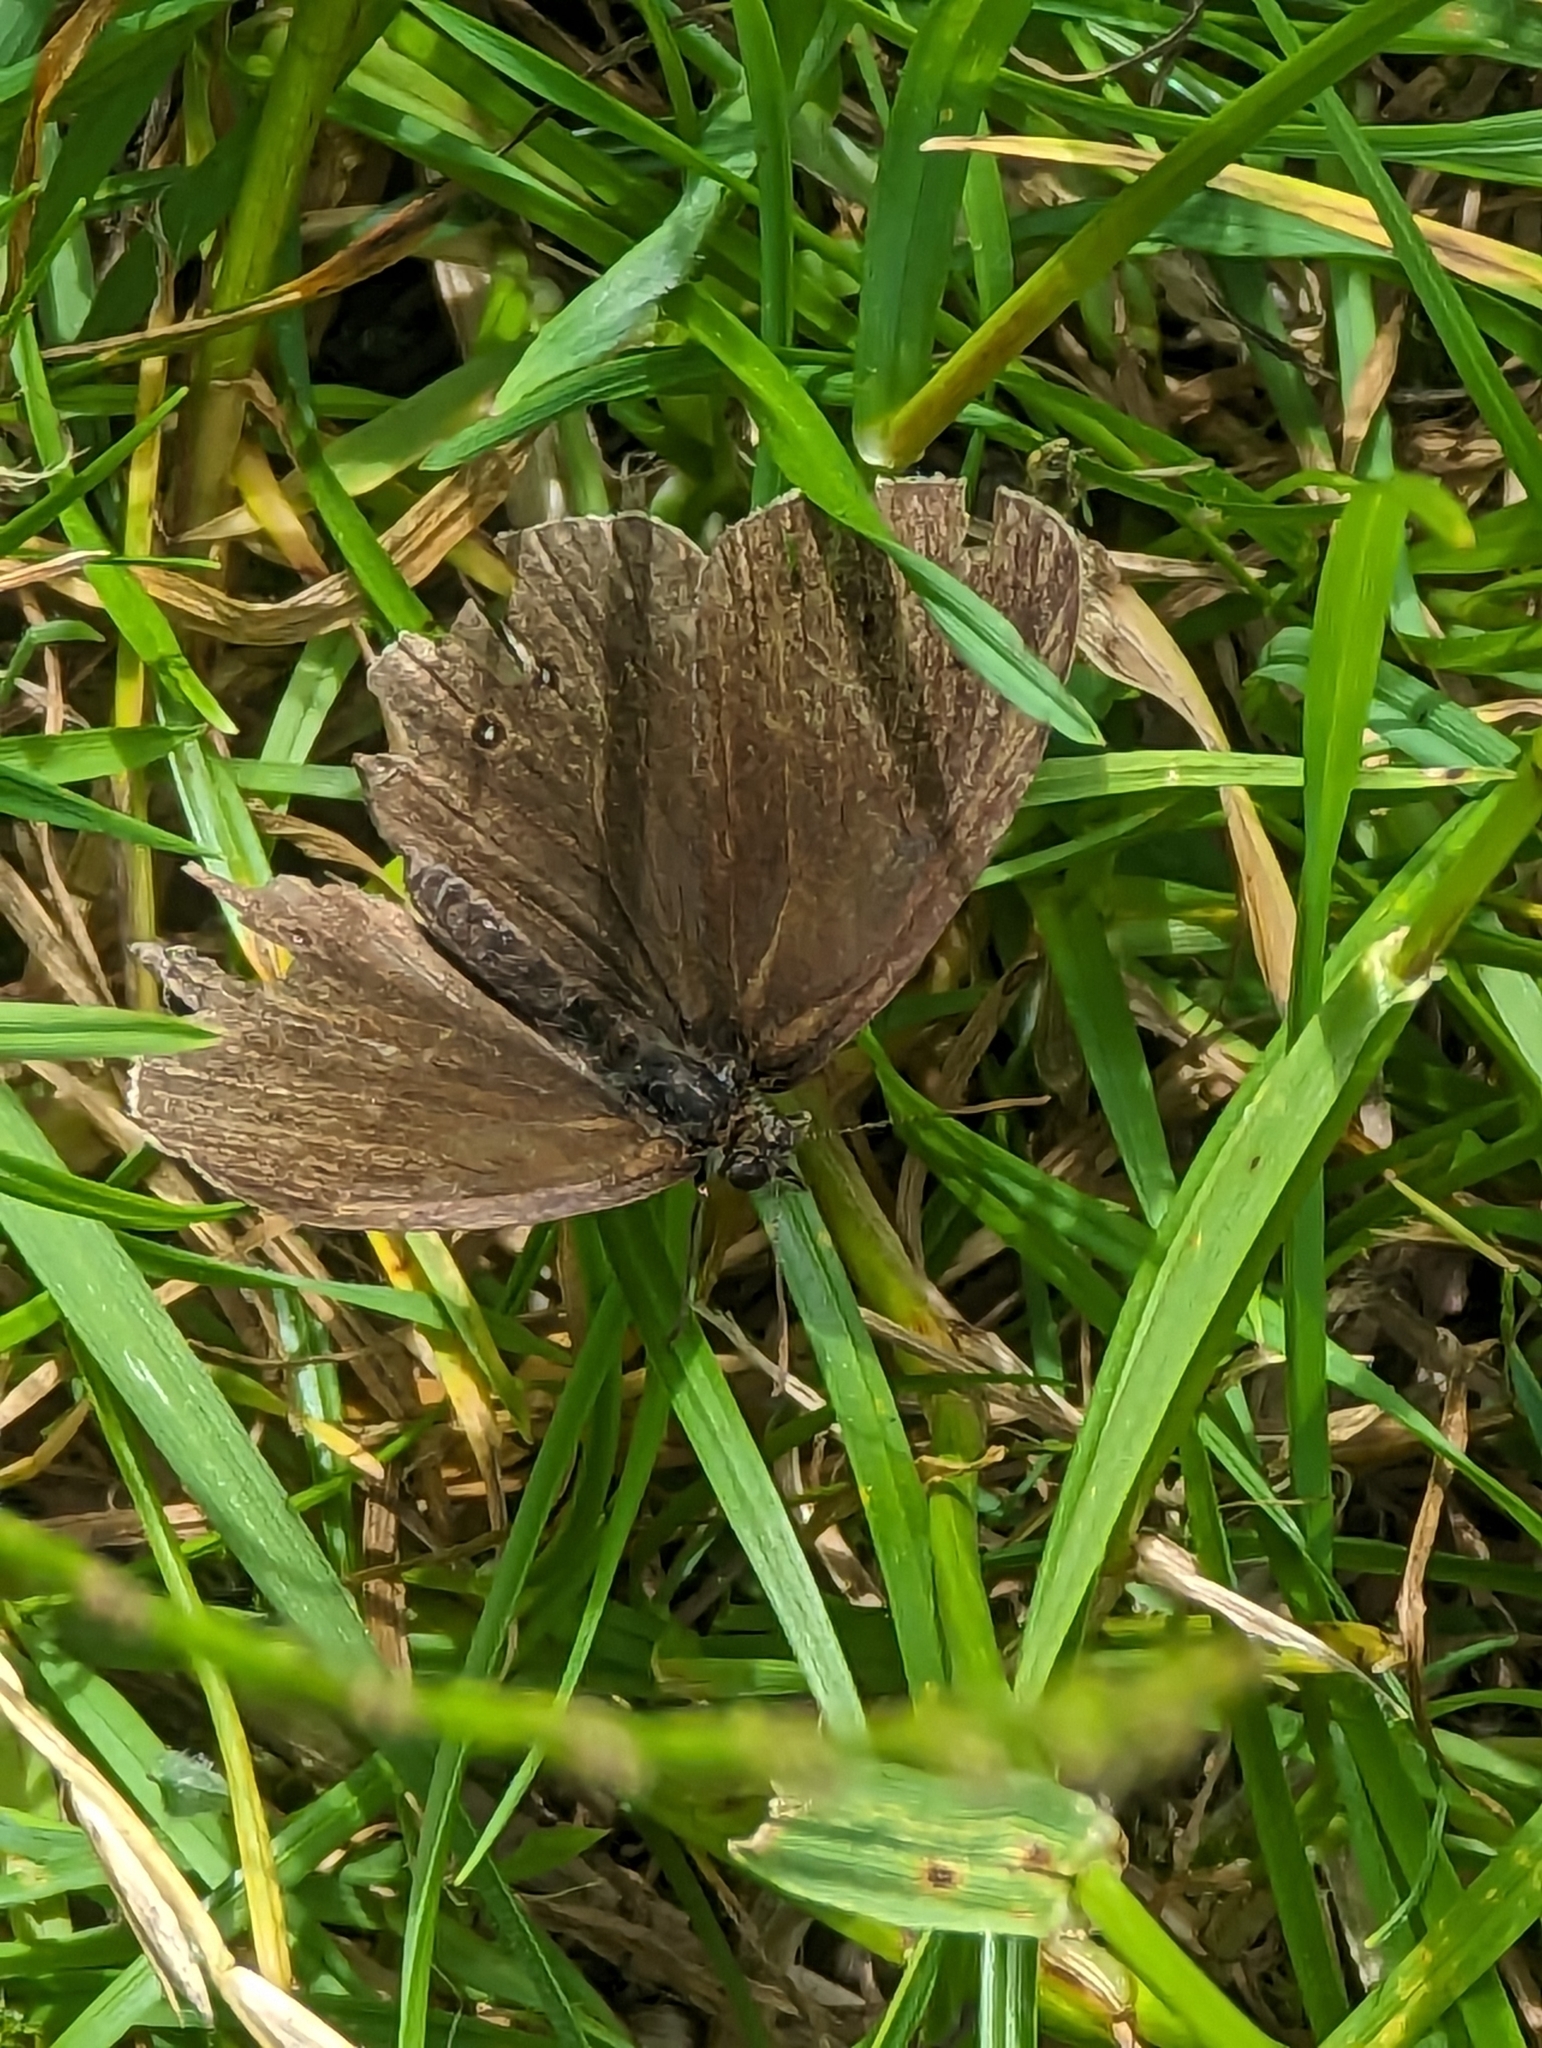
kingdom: Animalia
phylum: Arthropoda
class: Insecta
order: Lepidoptera
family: Nymphalidae
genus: Aphantopus
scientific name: Aphantopus hyperantus
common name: Ringlet
